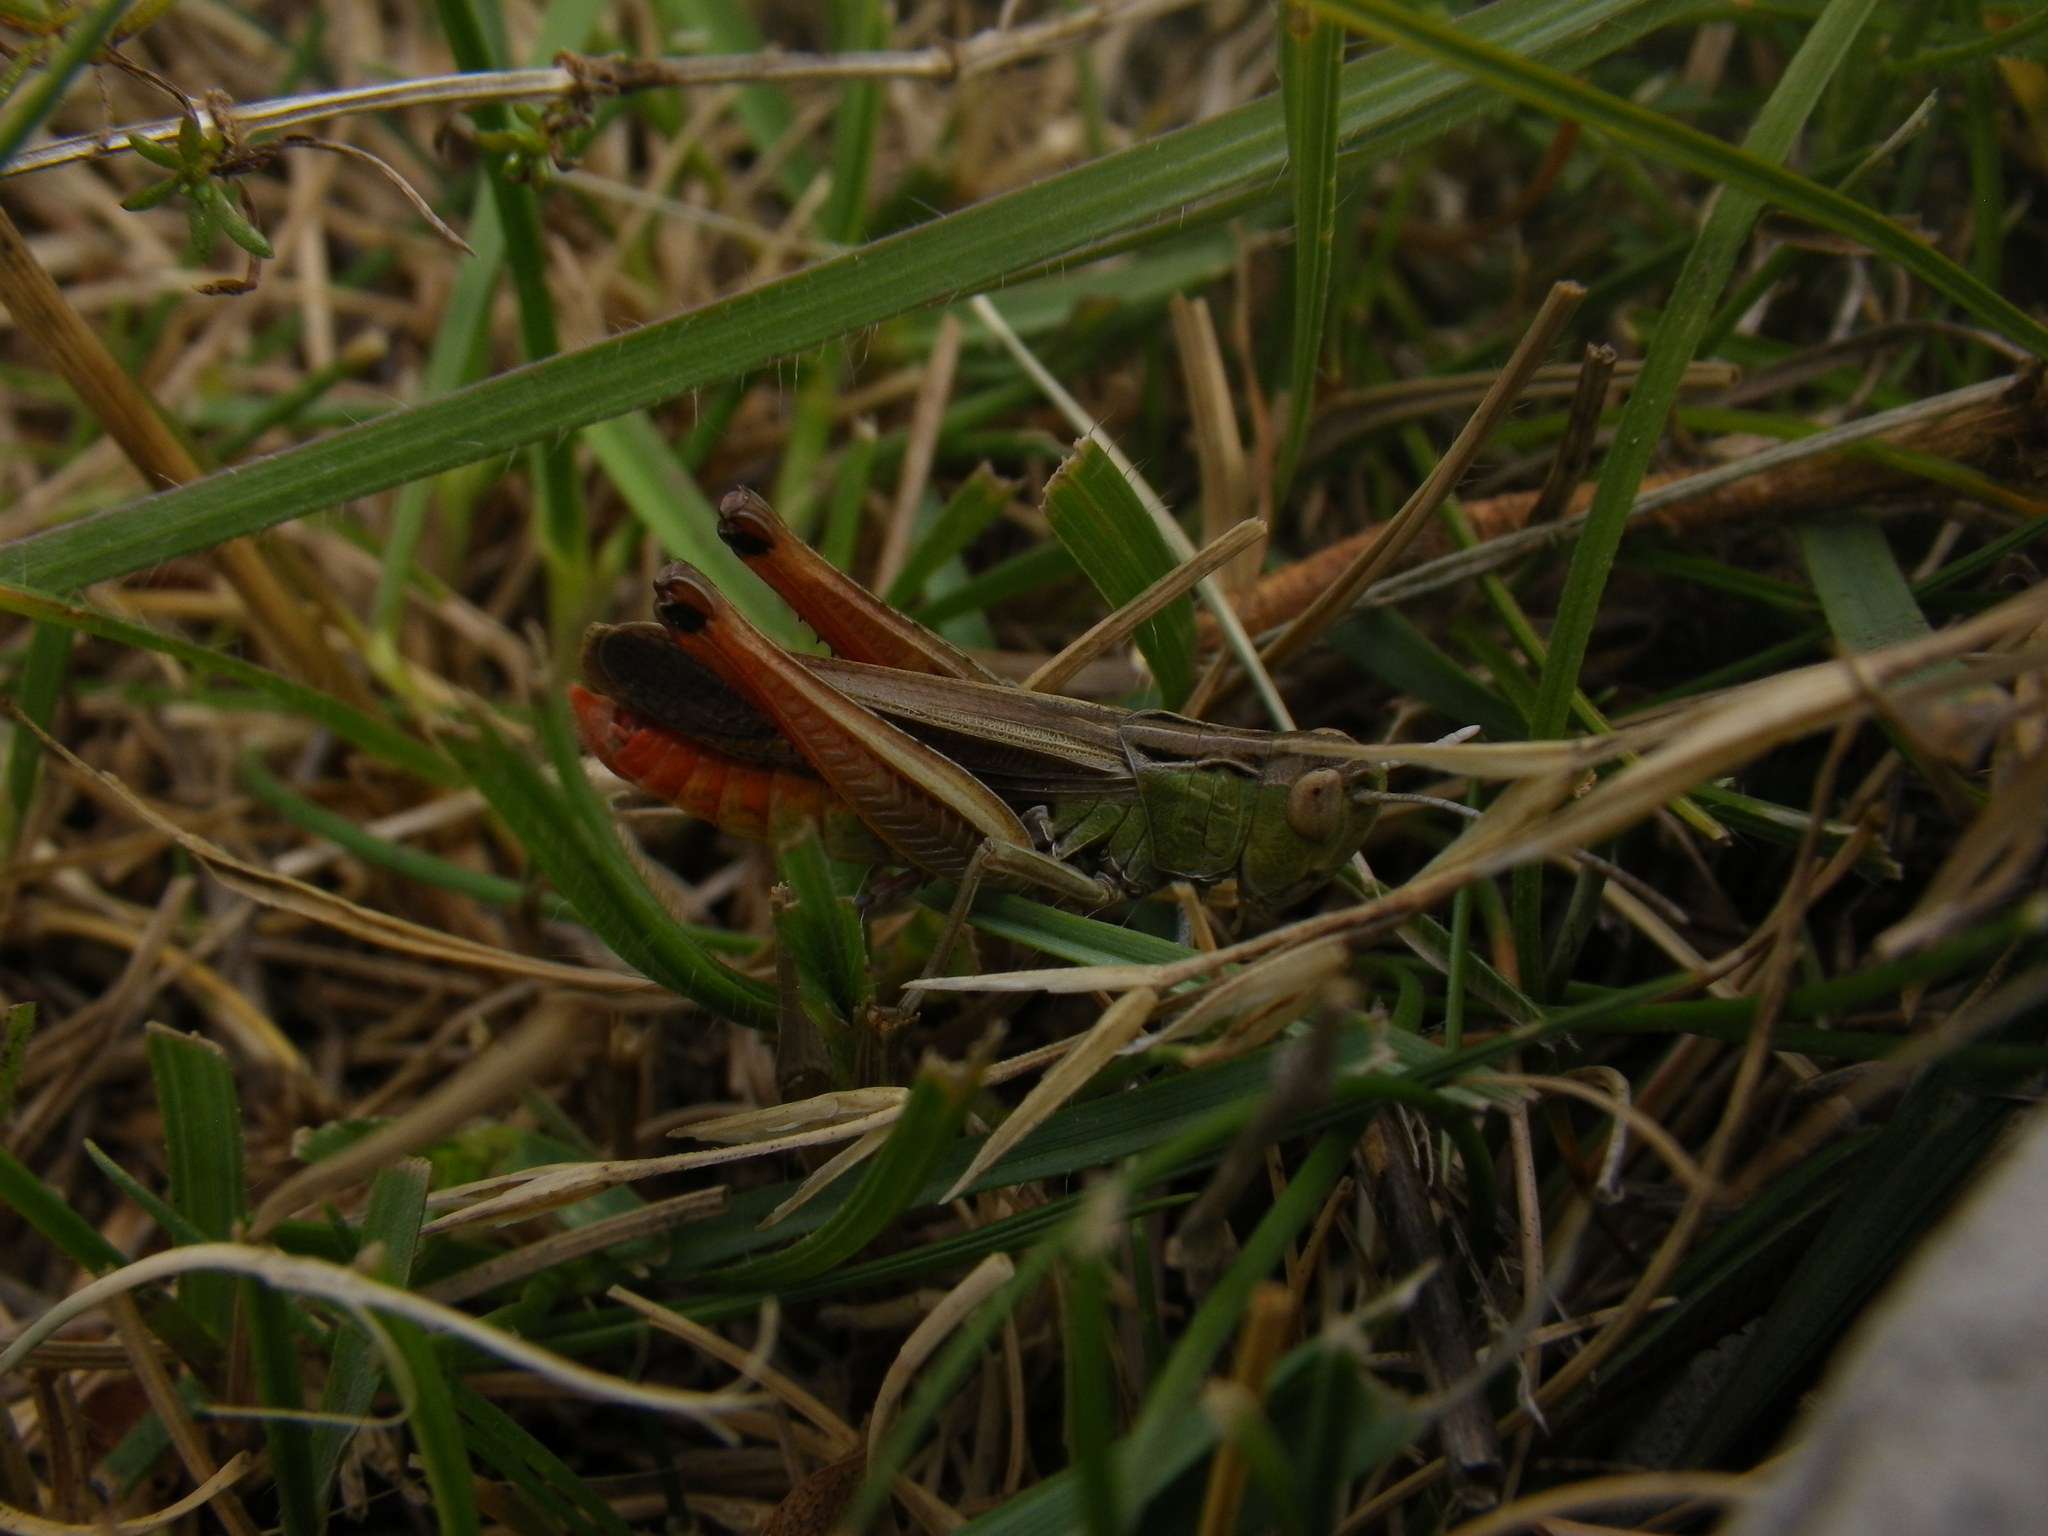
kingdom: Animalia
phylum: Arthropoda
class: Insecta
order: Orthoptera
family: Acrididae
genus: Stenobothrus
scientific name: Stenobothrus lineatus
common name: Stripe-winged grasshopper
